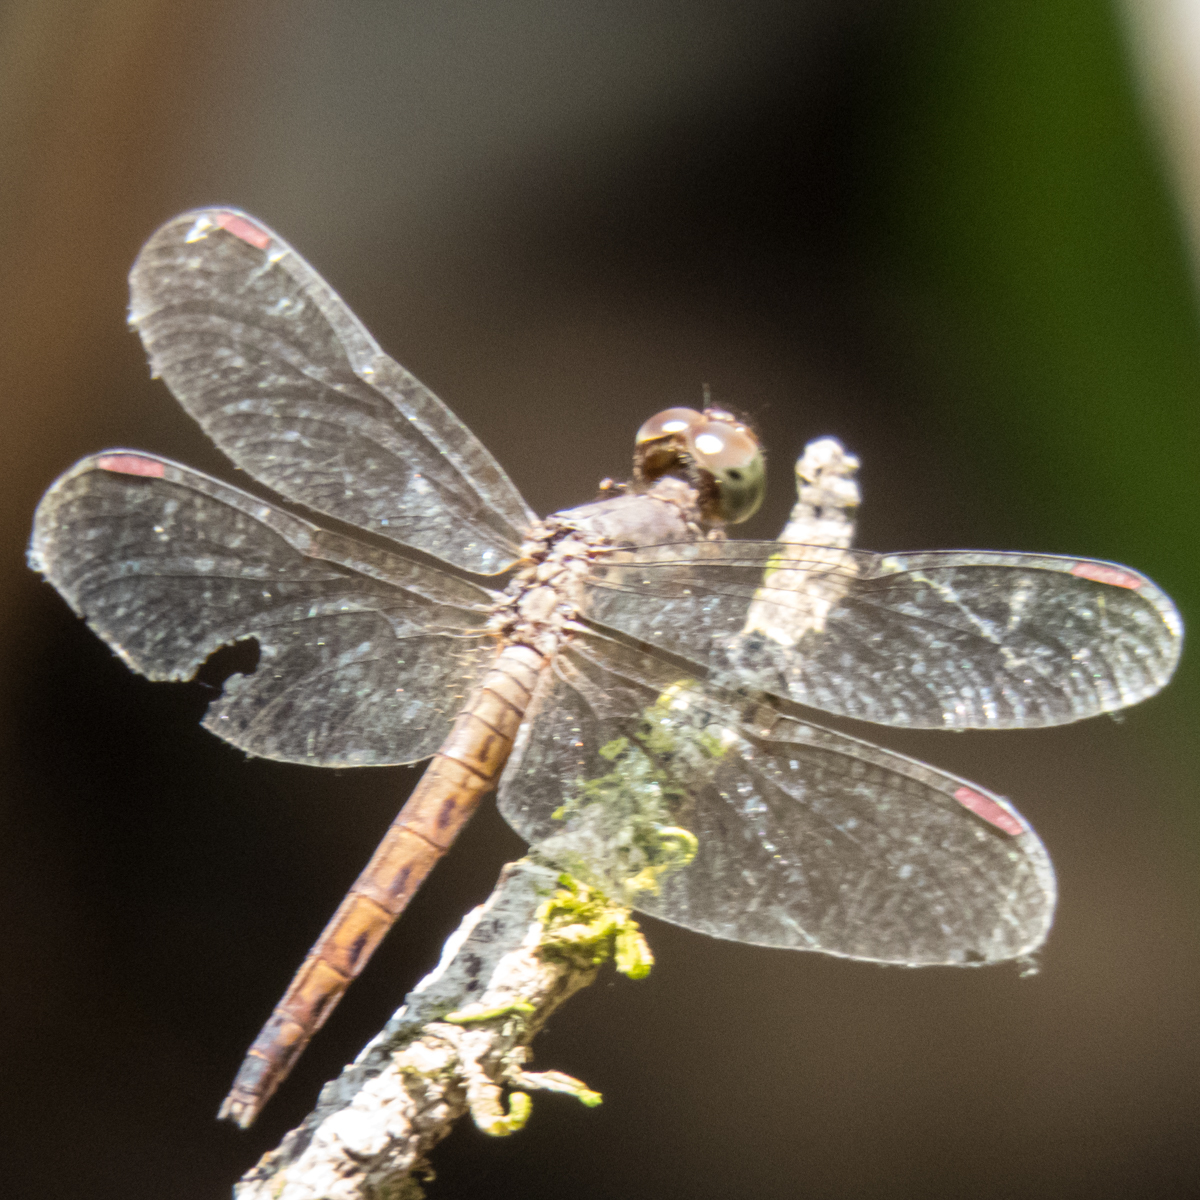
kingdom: Animalia
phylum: Arthropoda
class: Insecta
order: Odonata
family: Libellulidae
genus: Neurothemis
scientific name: Neurothemis fluctuans
